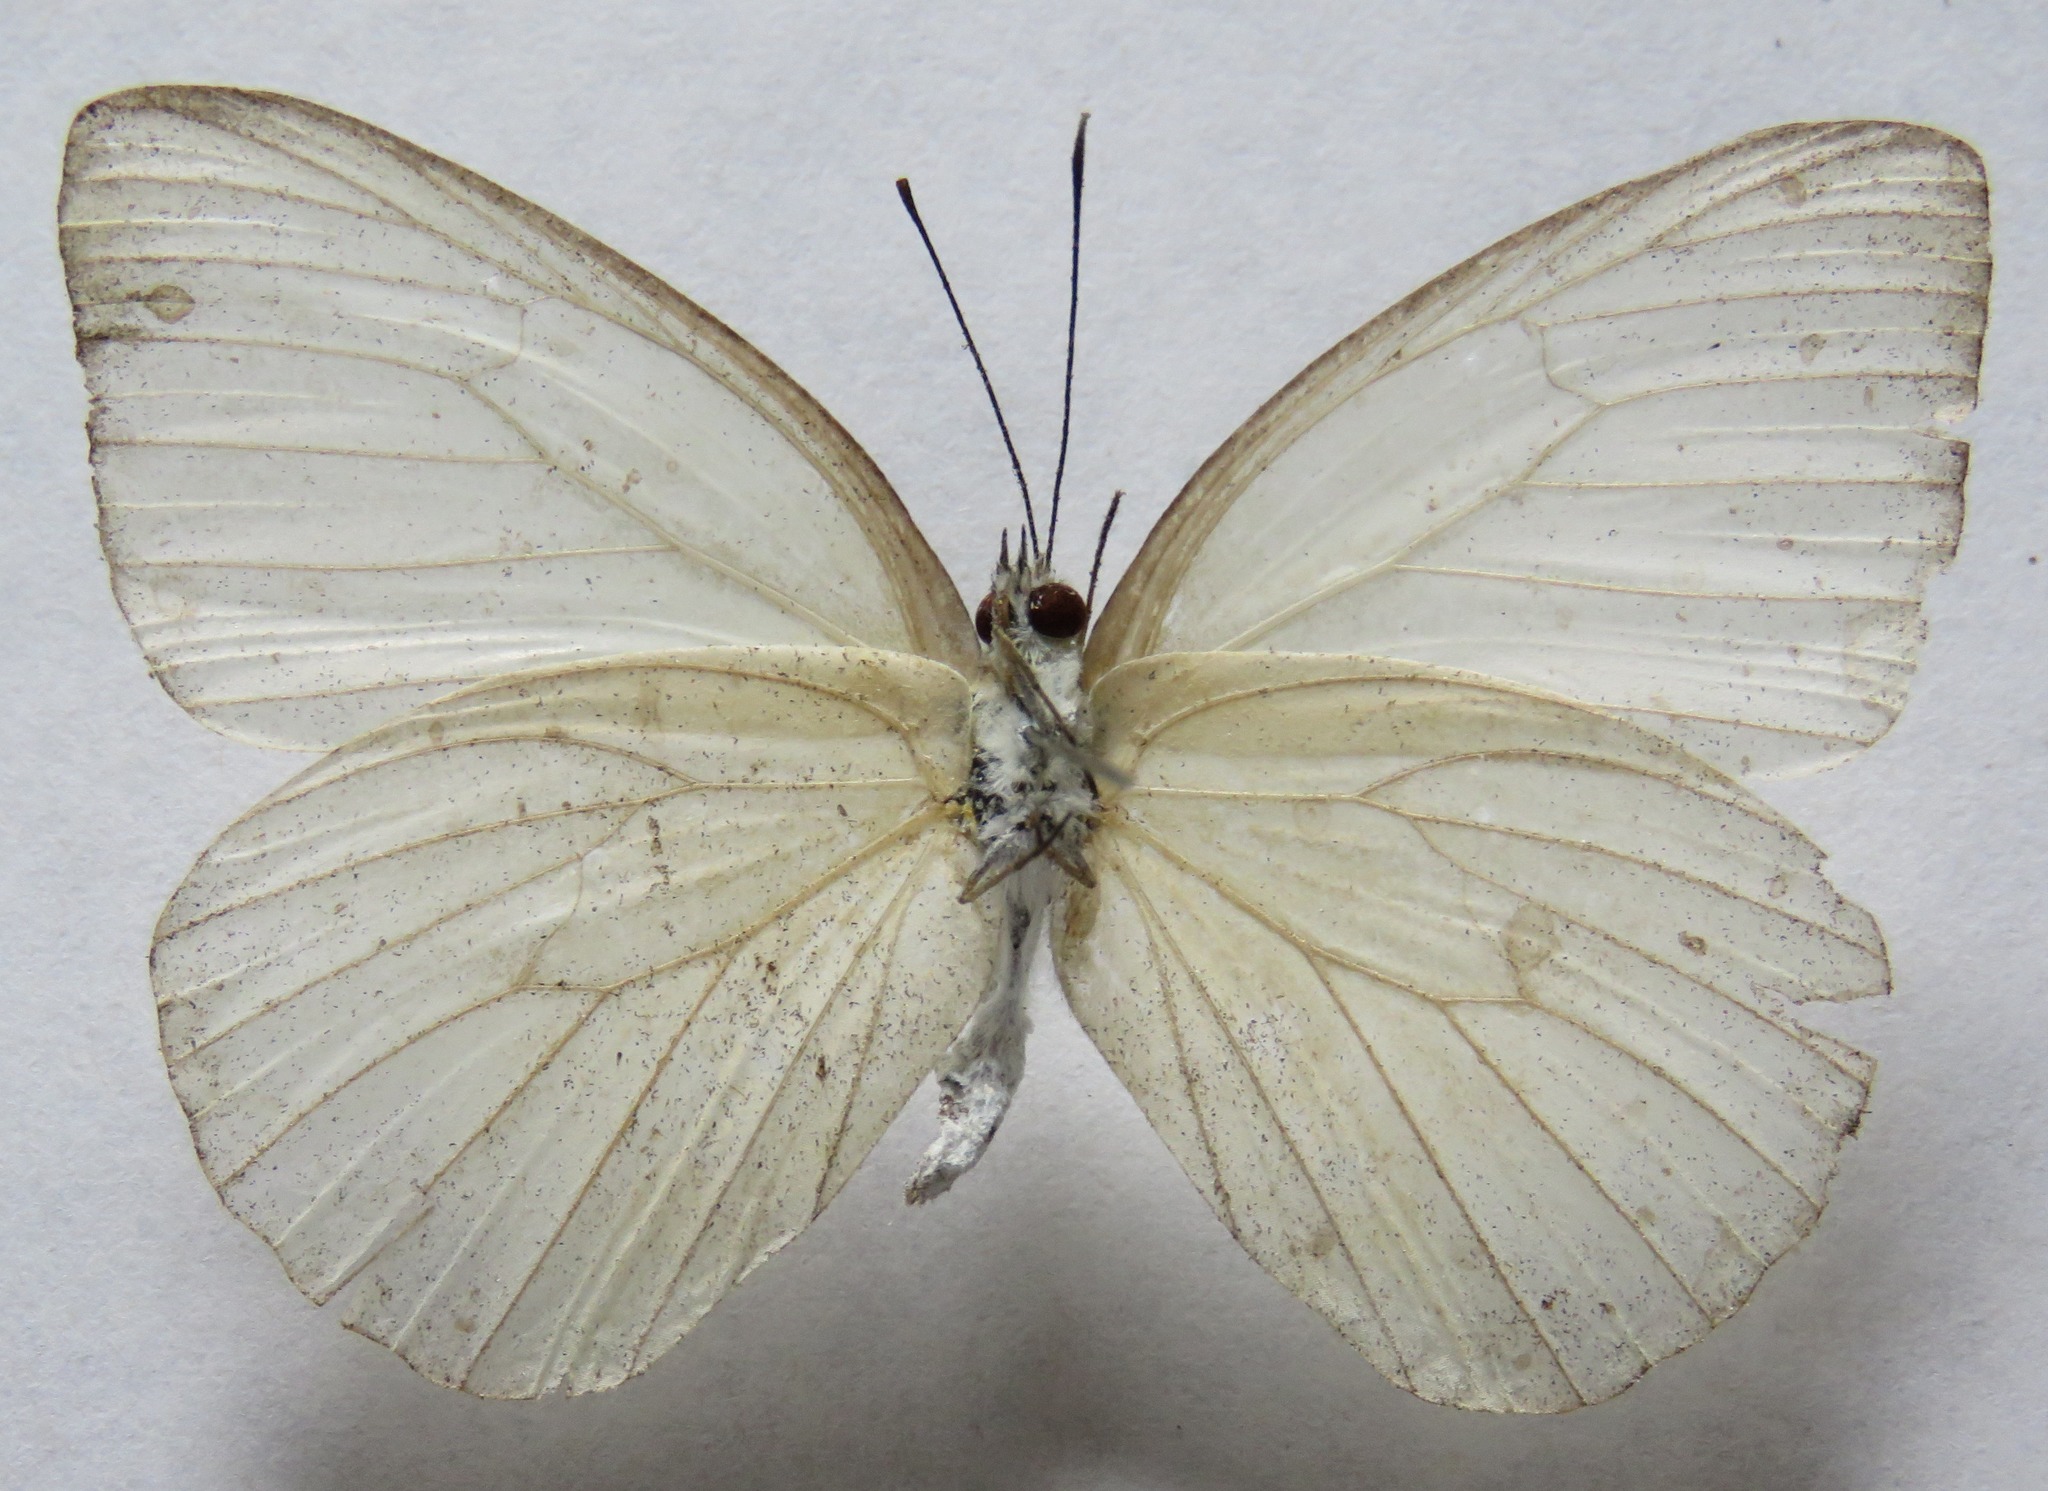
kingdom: Animalia
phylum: Arthropoda
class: Insecta
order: Lepidoptera
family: Pieridae
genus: Ascia
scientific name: Ascia monuste
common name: Great southern white
